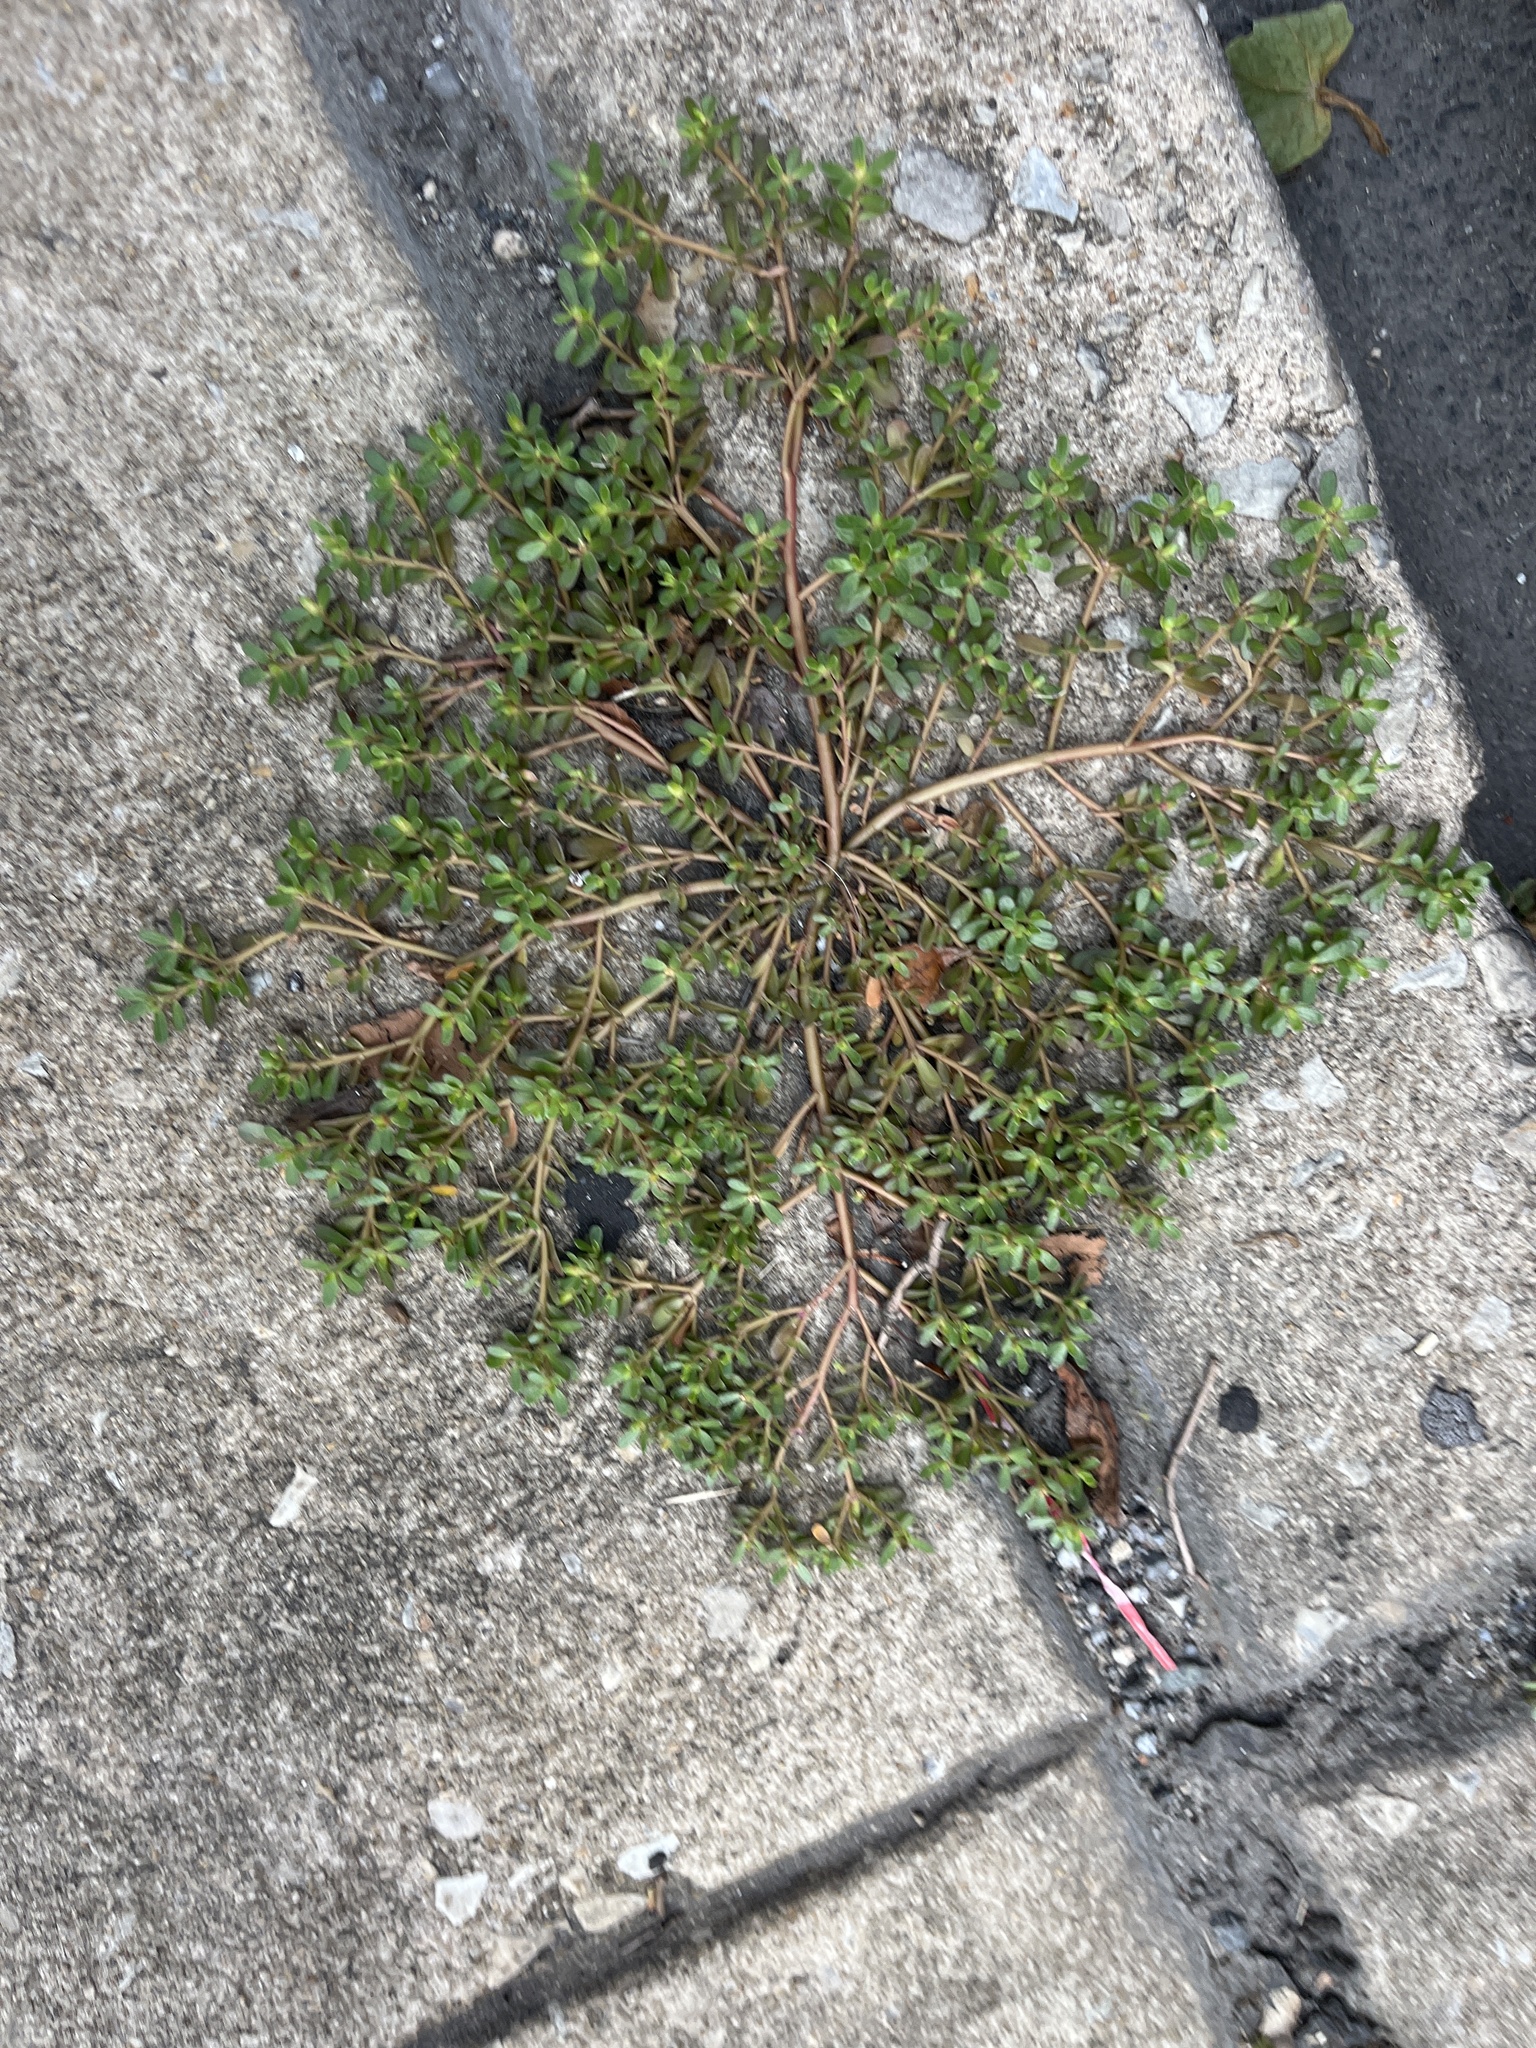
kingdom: Plantae
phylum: Tracheophyta
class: Magnoliopsida
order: Caryophyllales
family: Portulacaceae
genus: Portulaca
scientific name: Portulaca oleracea
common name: Common purslane
